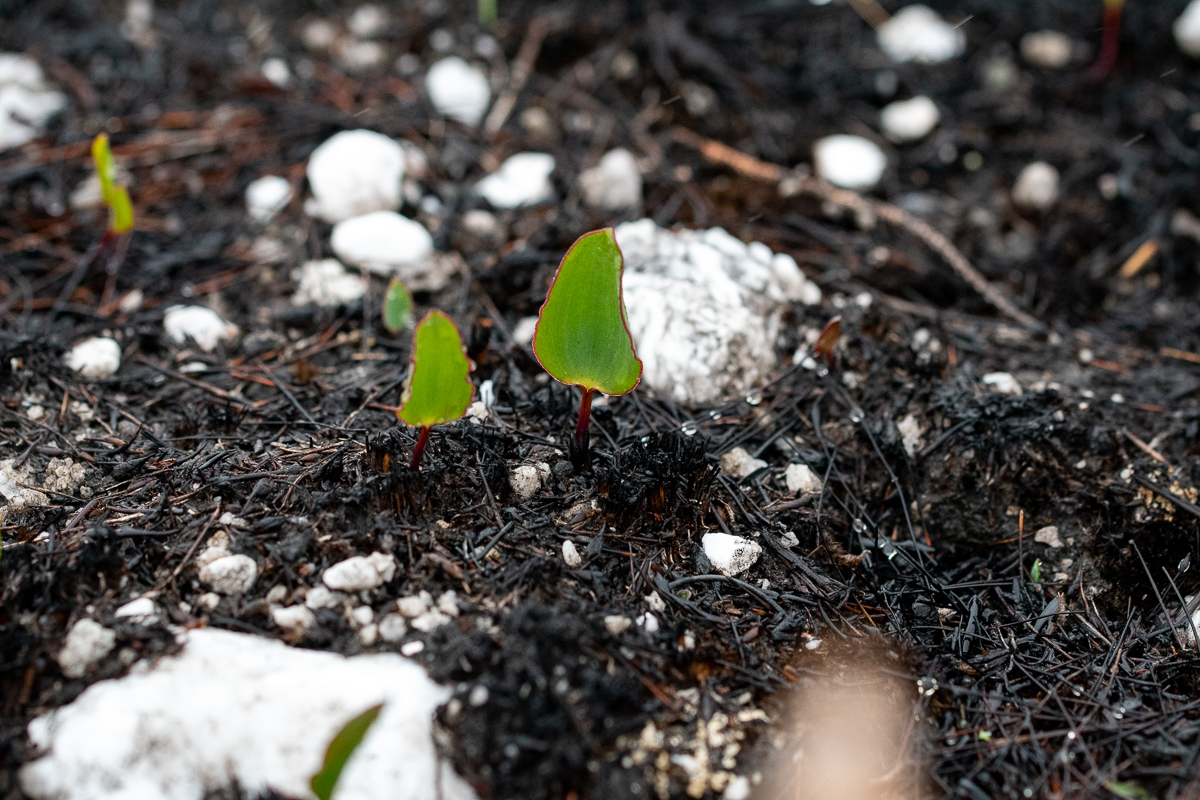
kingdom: Plantae
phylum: Tracheophyta
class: Liliopsida
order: Asparagales
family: Asparagaceae
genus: Eriospermum
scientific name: Eriospermum cernuum
